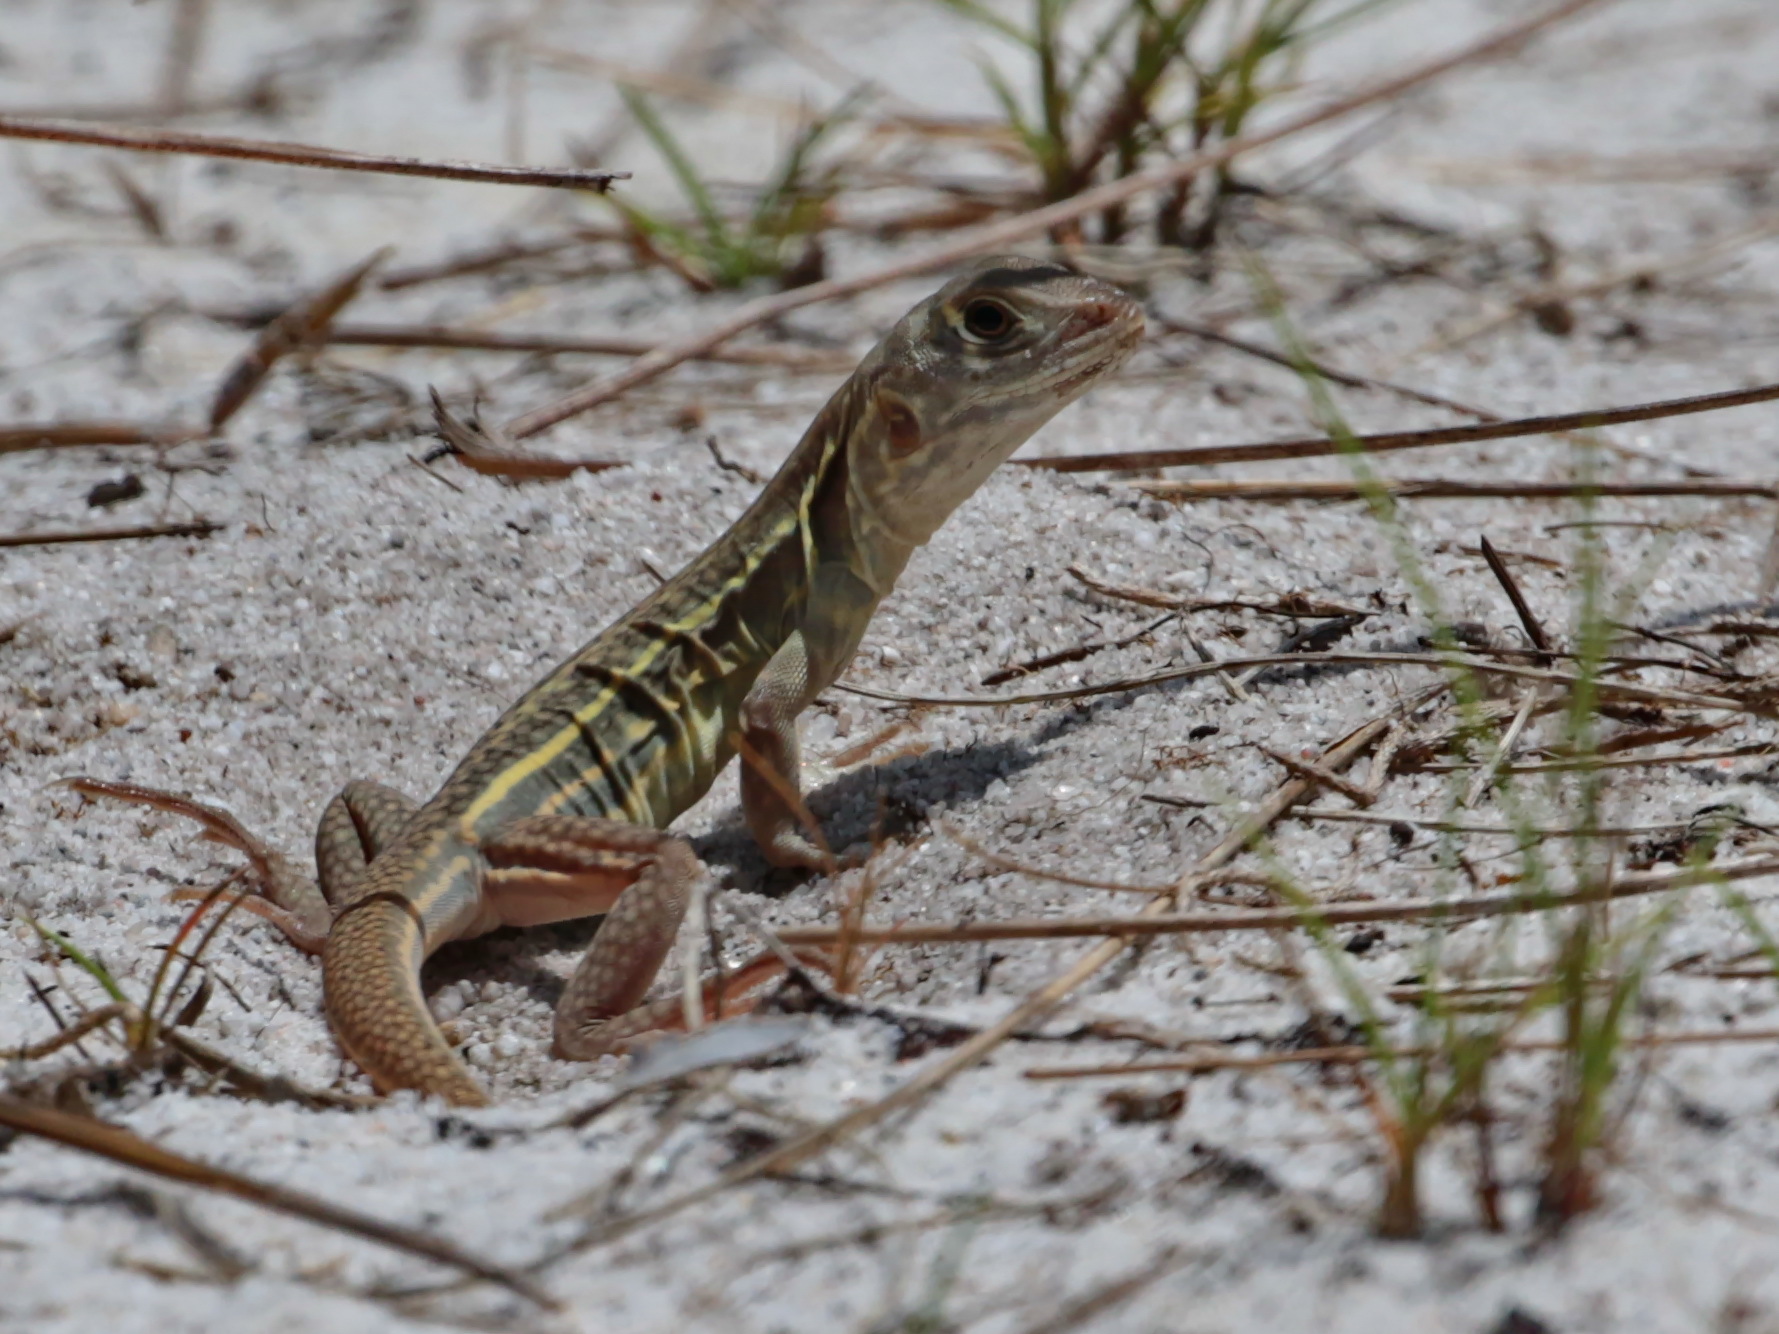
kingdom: Animalia
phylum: Chordata
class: Squamata
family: Agamidae
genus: Leiolepis
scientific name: Leiolepis boehmei
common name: Böhme’s butterfly lizard
